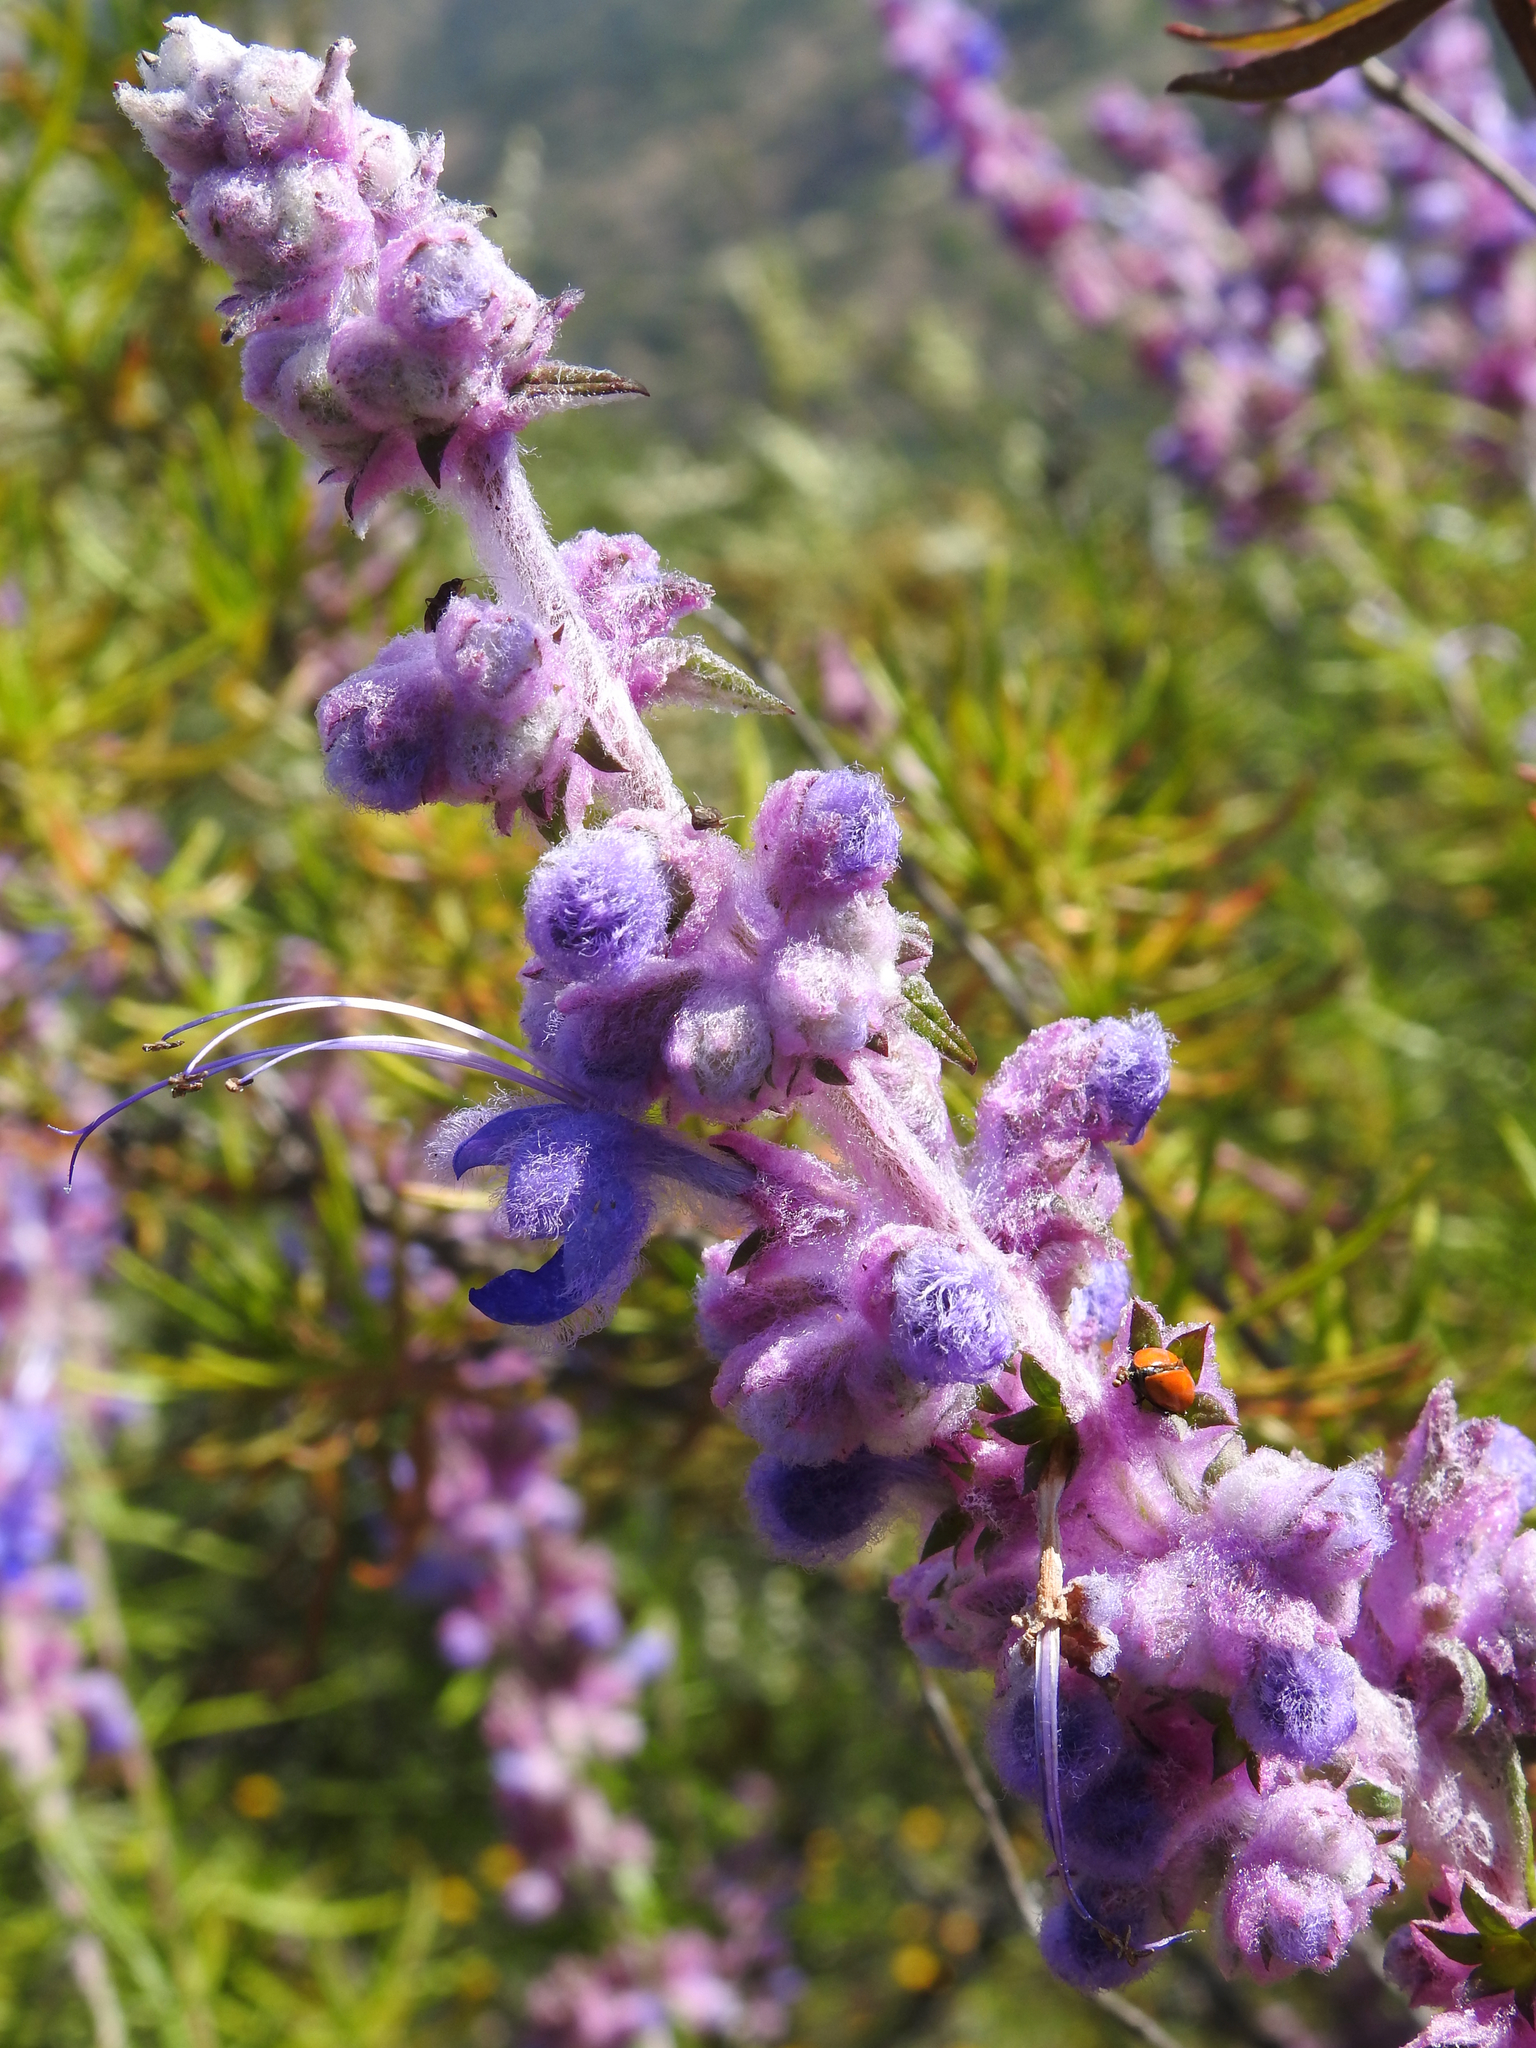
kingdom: Plantae
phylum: Tracheophyta
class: Magnoliopsida
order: Lamiales
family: Lamiaceae
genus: Trichostema
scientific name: Trichostema lanatum
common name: Woolly bluecurls
